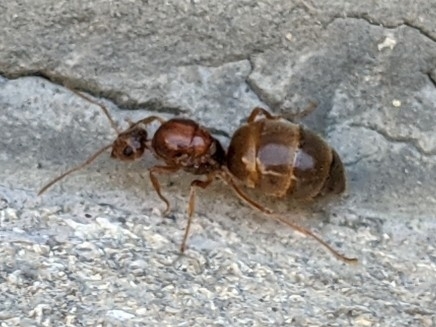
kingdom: Animalia
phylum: Arthropoda
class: Insecta
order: Hymenoptera
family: Formicidae
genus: Prenolepis
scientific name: Prenolepis imparis
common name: Small honey ant
